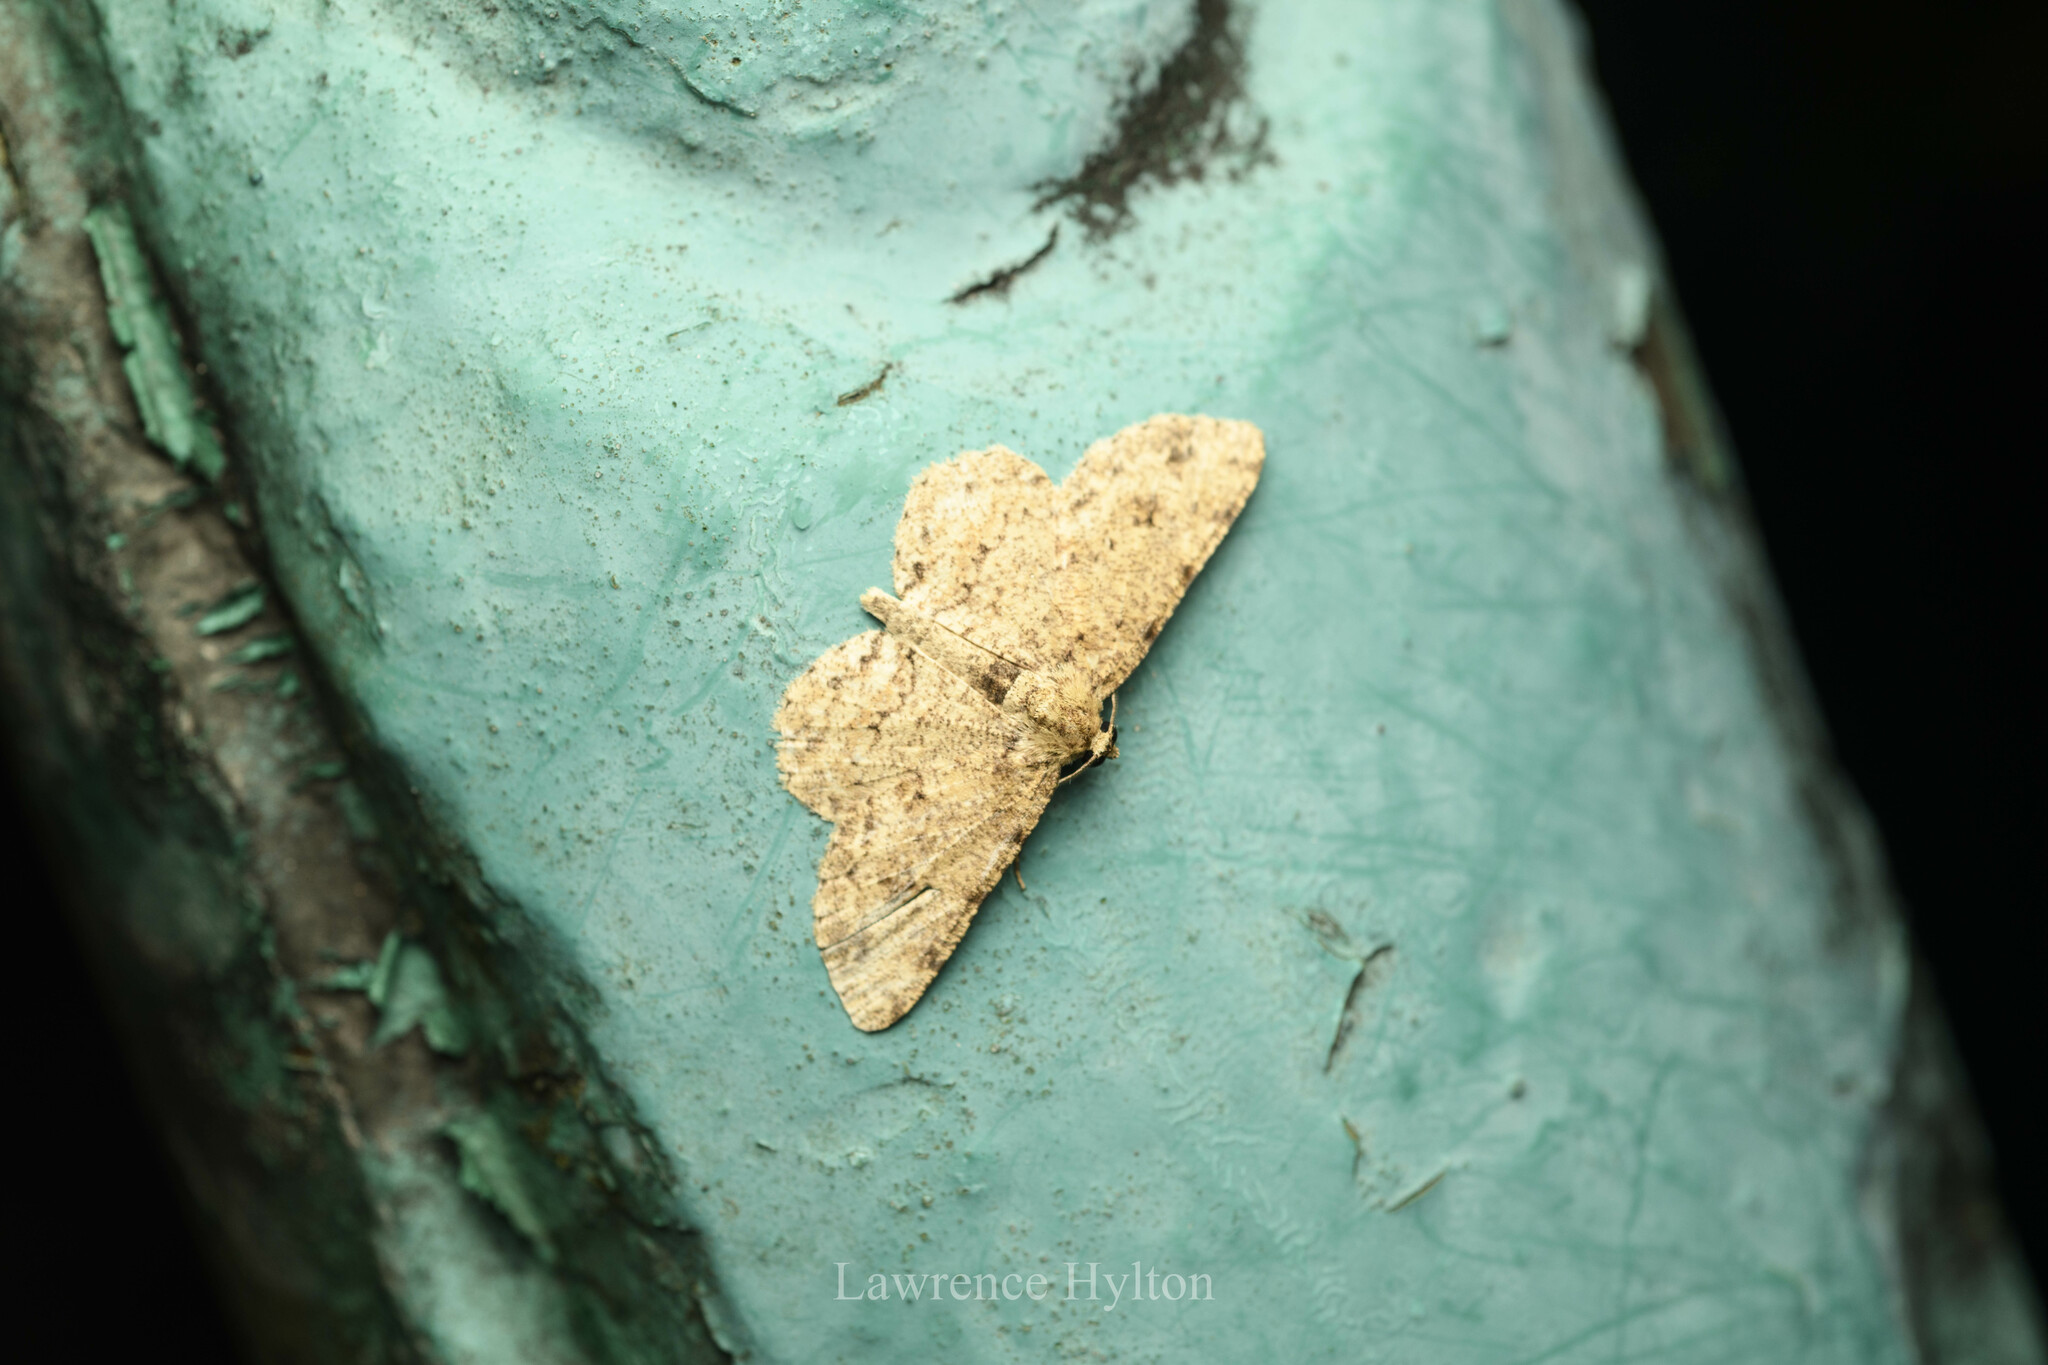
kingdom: Animalia
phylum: Arthropoda
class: Insecta
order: Lepidoptera
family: Geometridae
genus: Ectropis
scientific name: Ectropis bhurmitra
